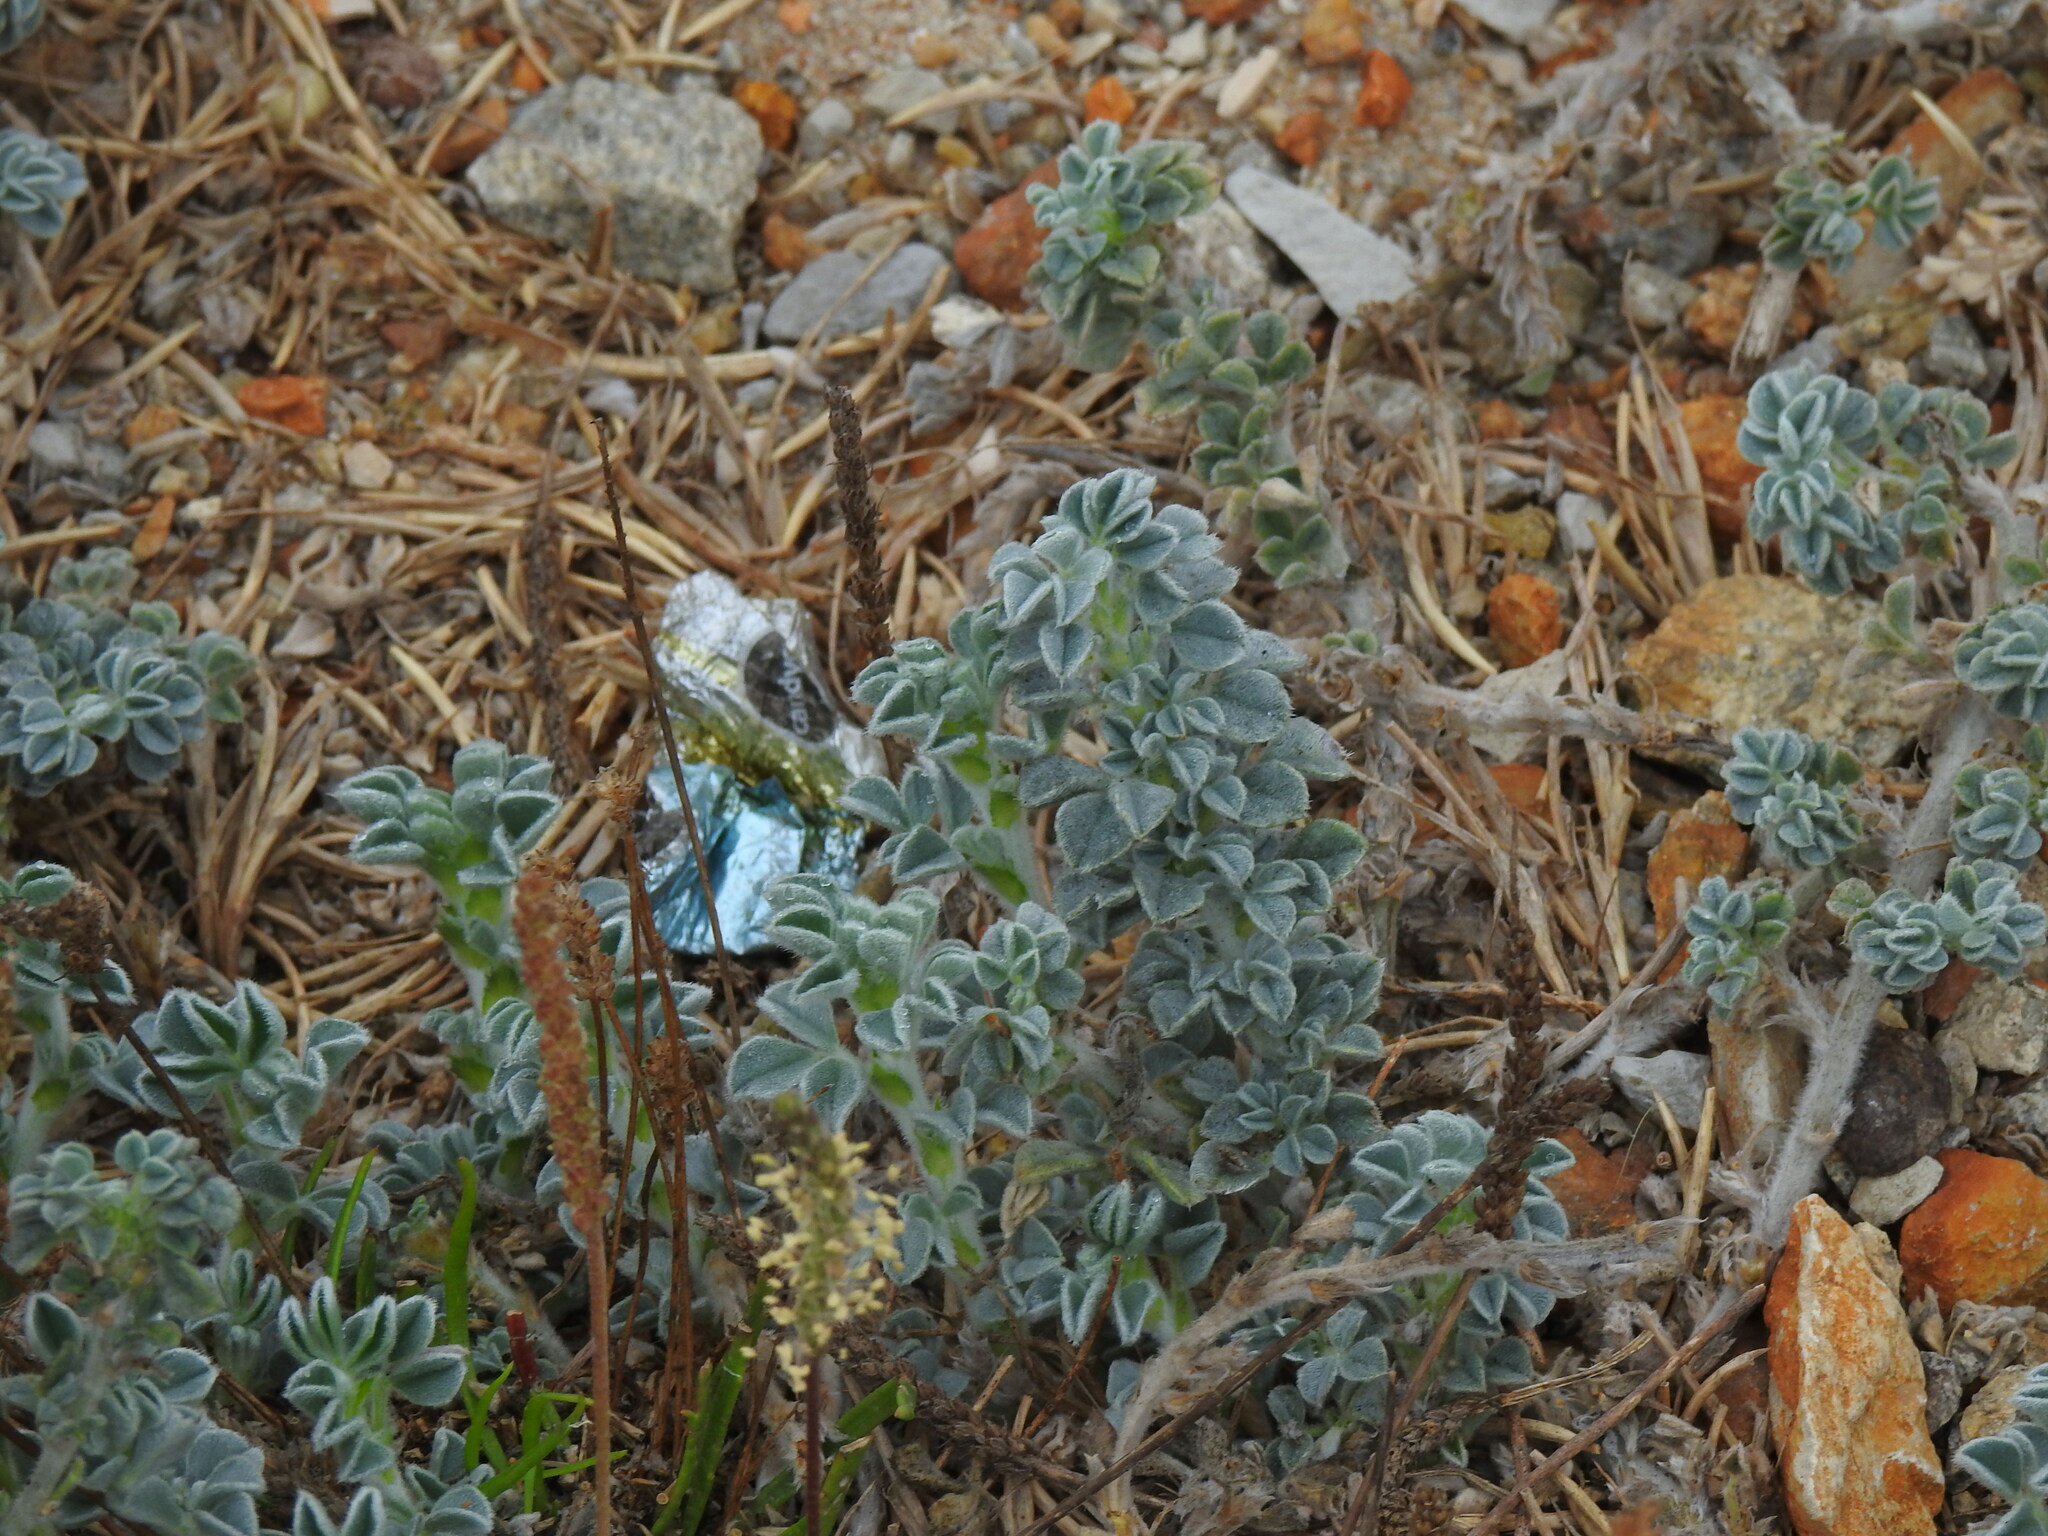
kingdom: Plantae
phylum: Tracheophyta
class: Magnoliopsida
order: Fabales
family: Fabaceae
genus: Medicago
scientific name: Medicago marina
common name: Sea medick
